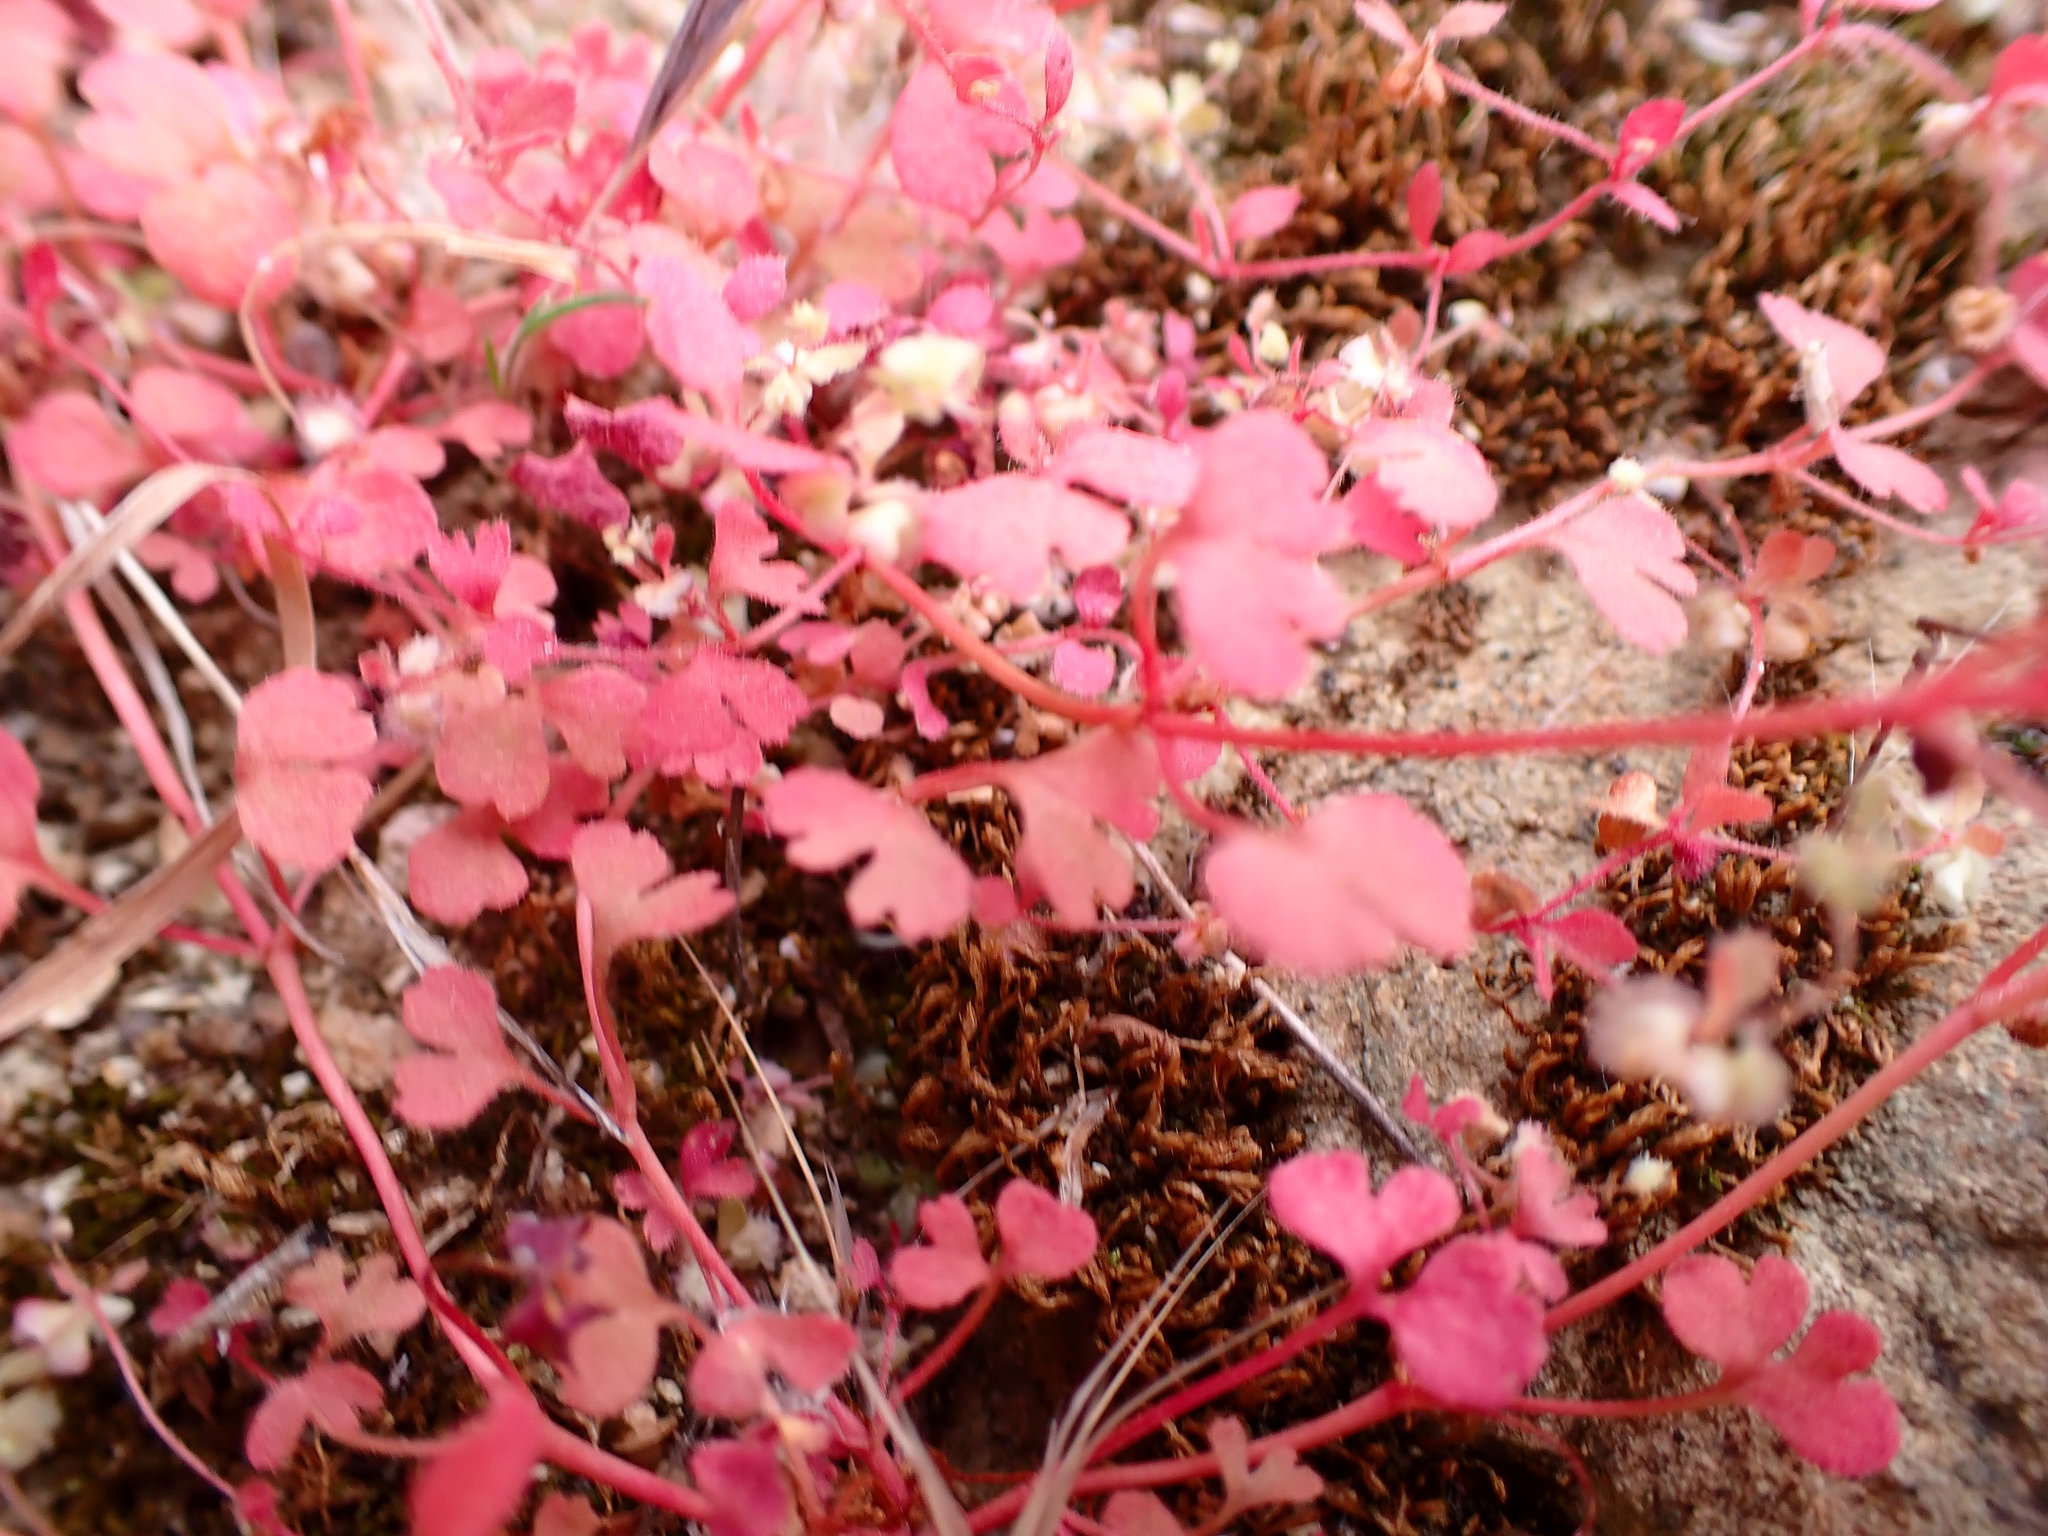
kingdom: Plantae
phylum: Tracheophyta
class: Magnoliopsida
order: Caryophyllales
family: Polygonaceae
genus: Pterostegia
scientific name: Pterostegia drymarioides
